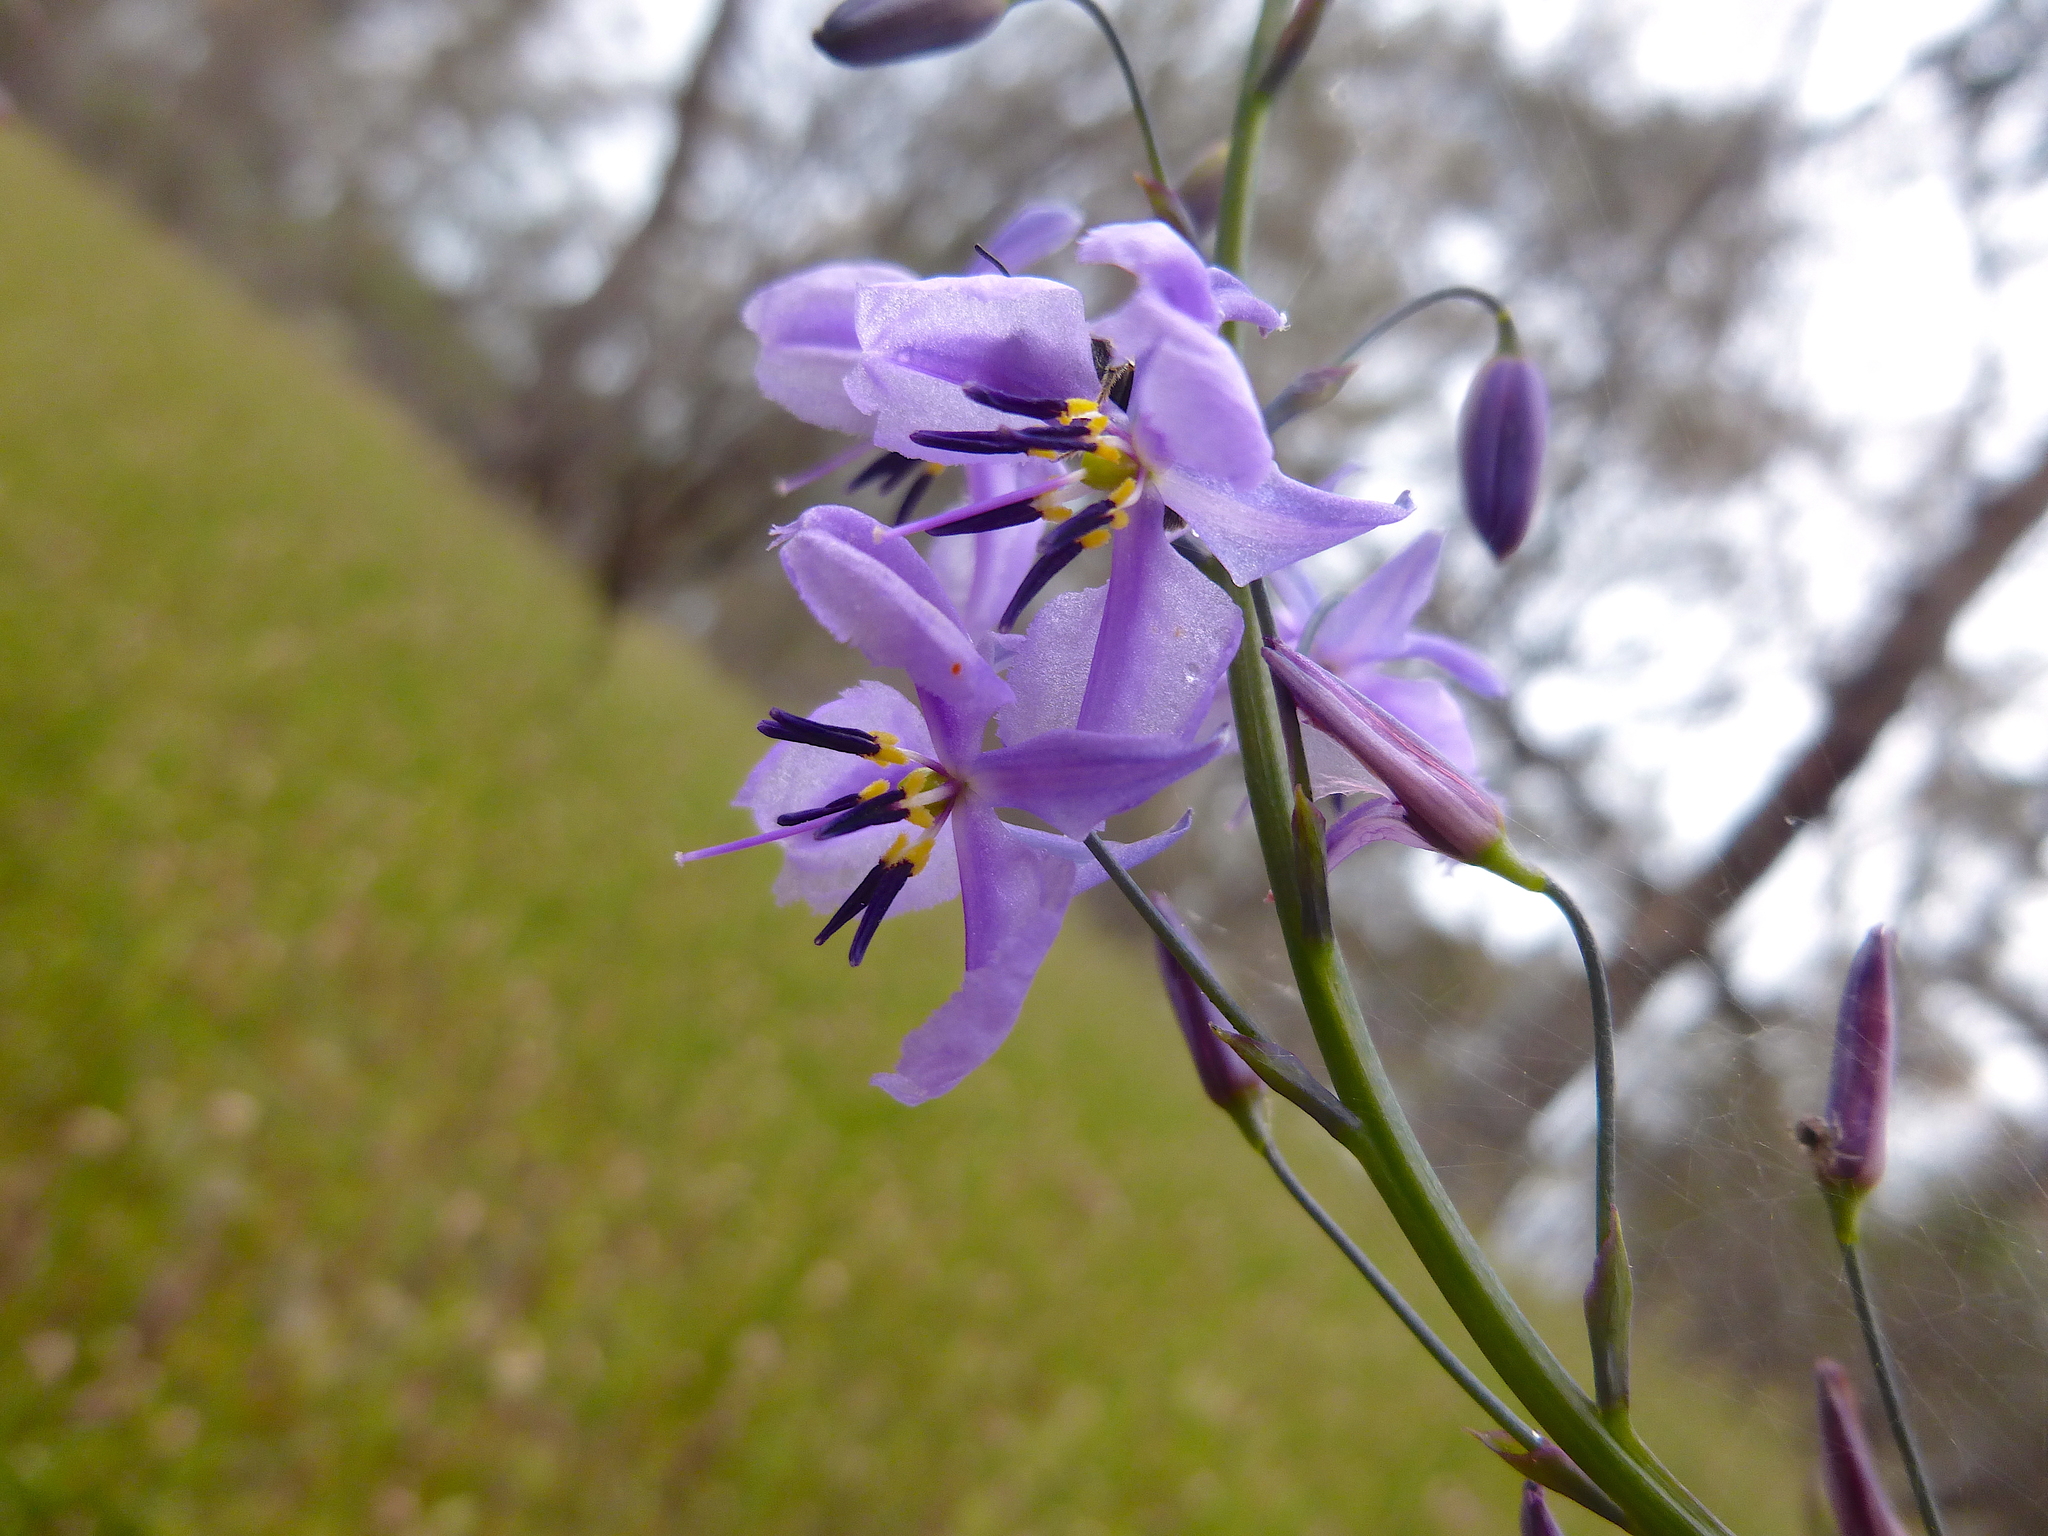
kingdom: Plantae
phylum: Tracheophyta
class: Liliopsida
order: Asparagales
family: Asparagaceae
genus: Arthropodium
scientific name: Arthropodium strictum
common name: Chocolate-lily
